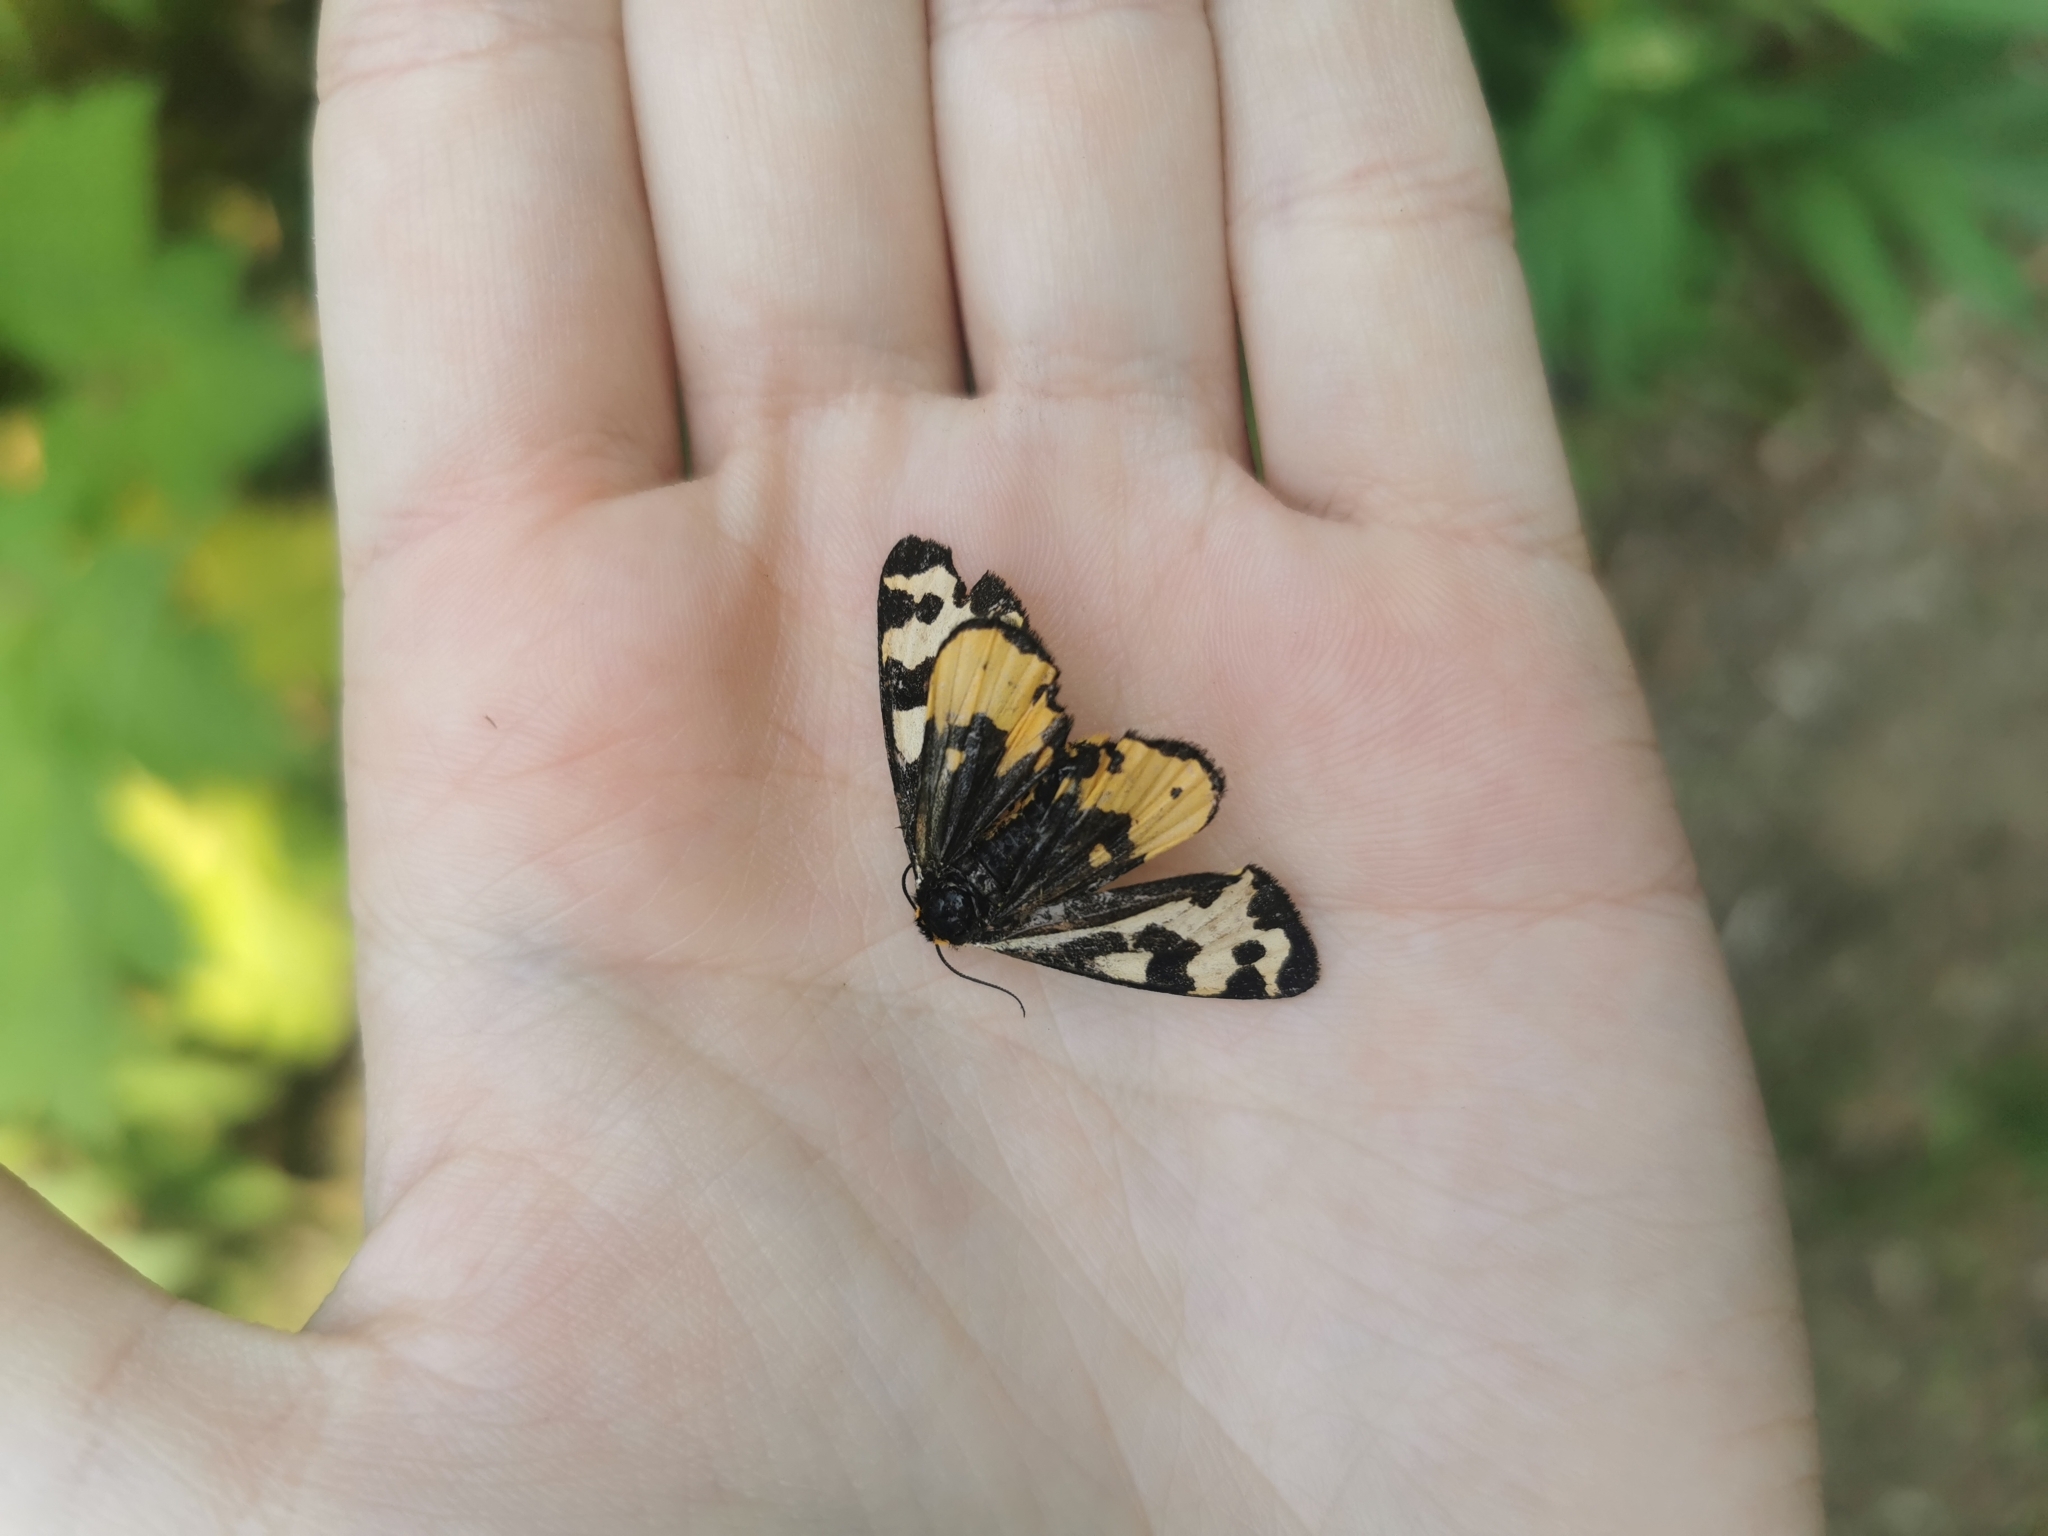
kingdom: Animalia
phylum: Arthropoda
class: Insecta
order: Lepidoptera
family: Erebidae
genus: Parasemia
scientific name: Parasemia plantaginis
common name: Wood tiger
